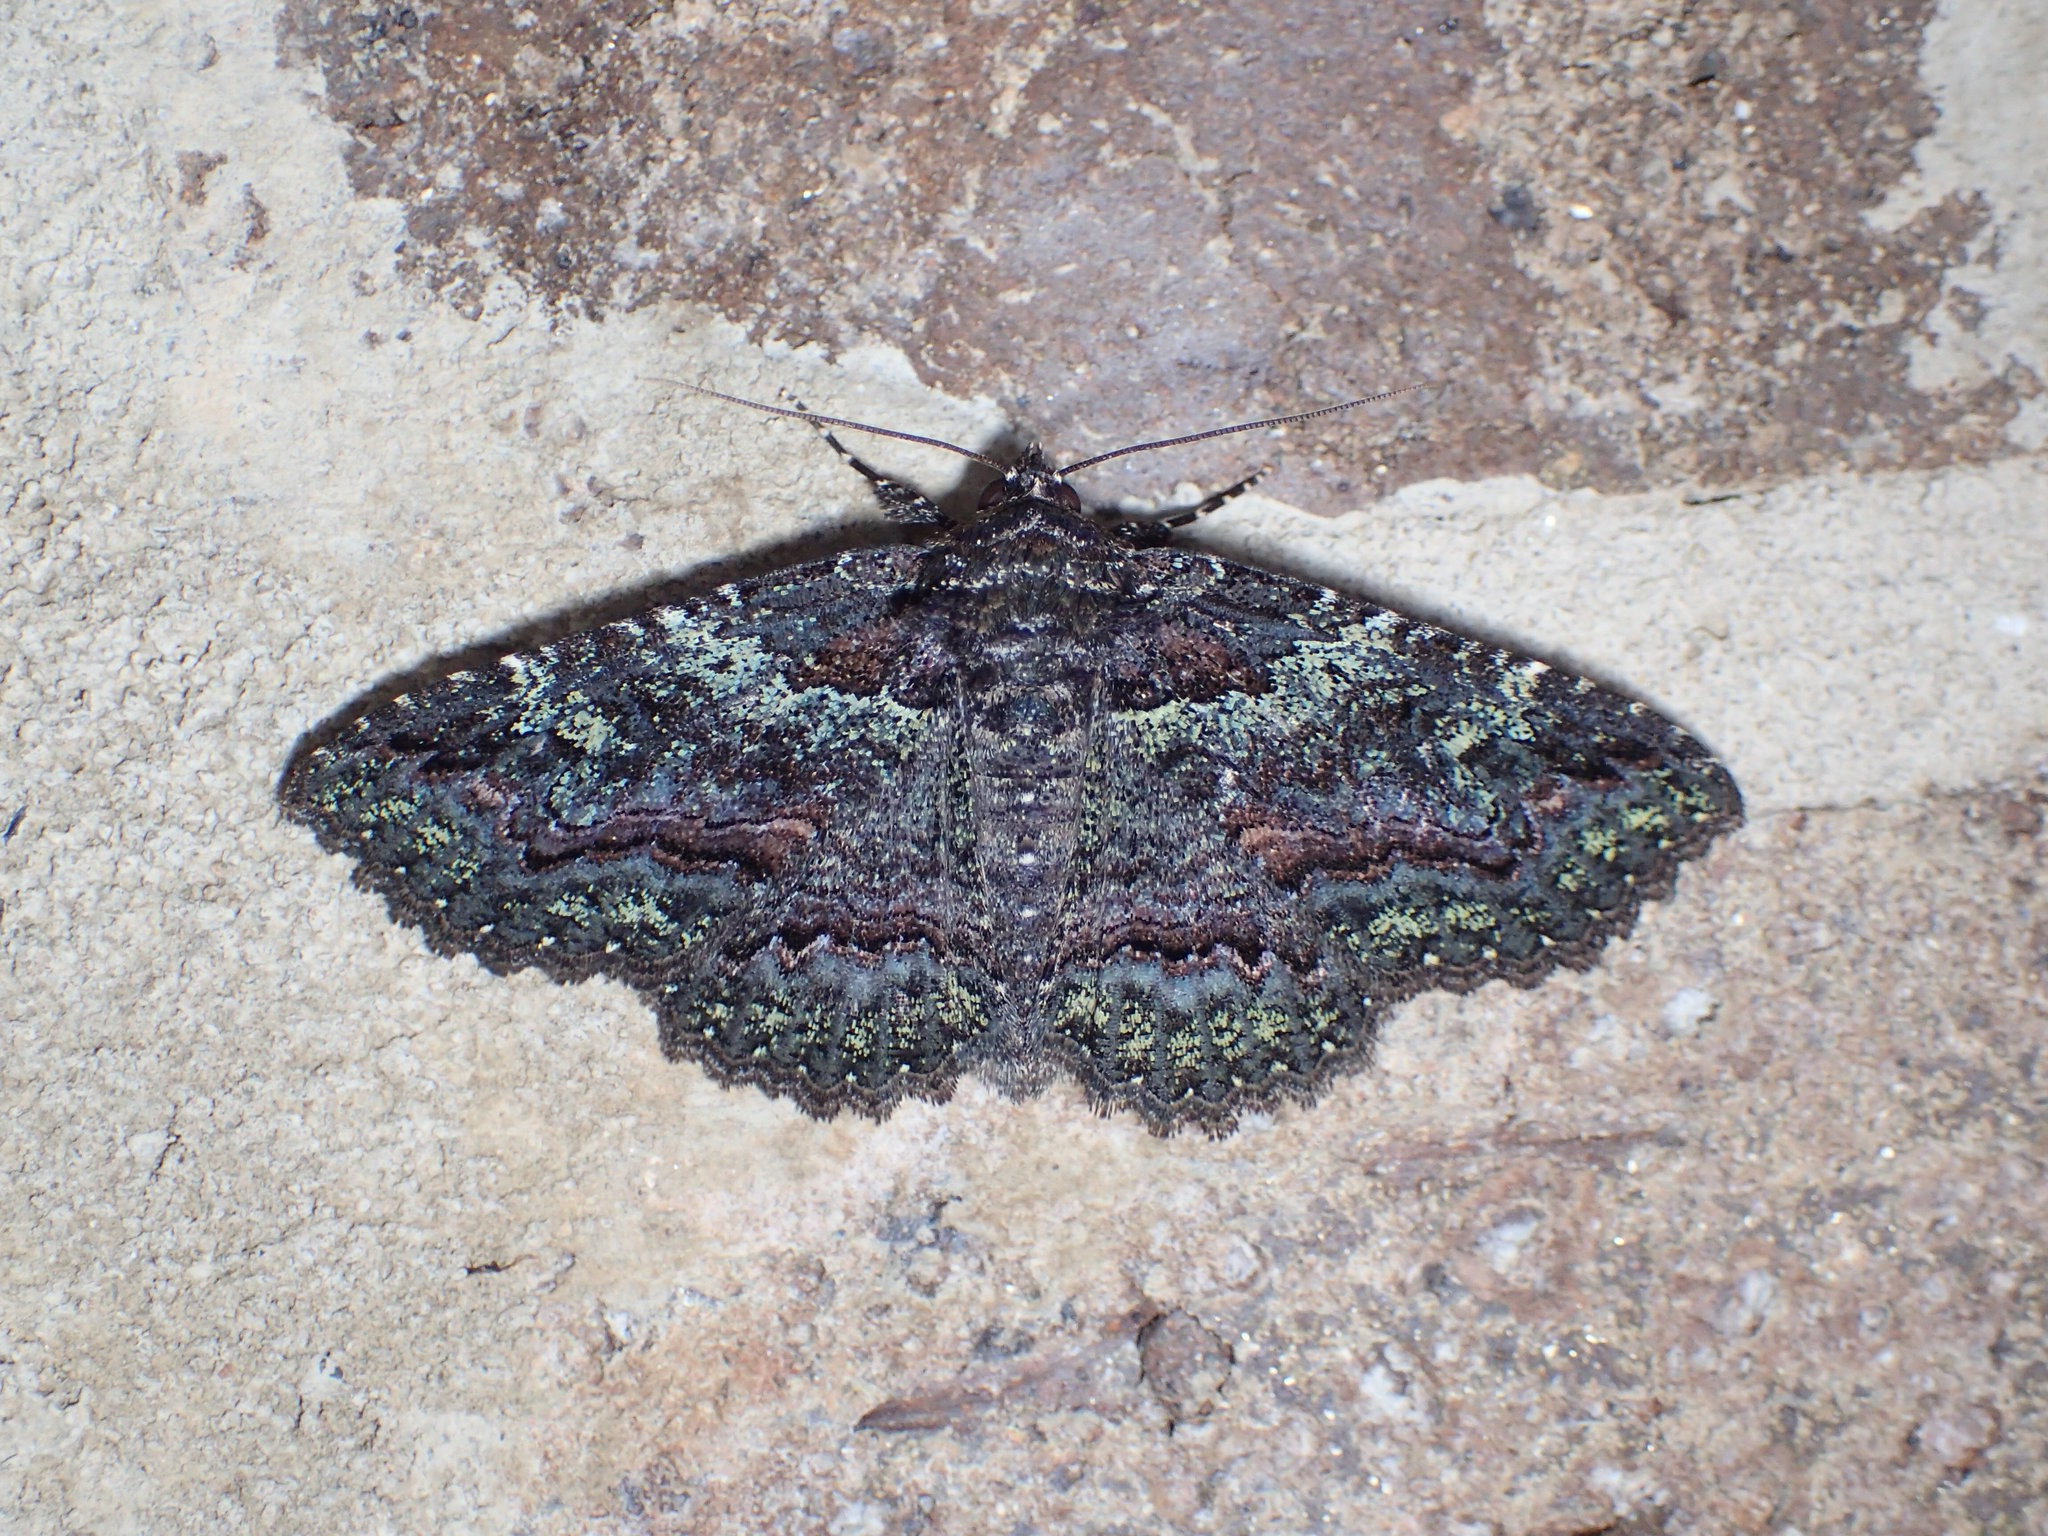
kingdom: Animalia
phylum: Arthropoda
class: Insecta
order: Lepidoptera
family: Erebidae
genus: Zale
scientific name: Zale aeruginosa
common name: Green-dusted zale moth
